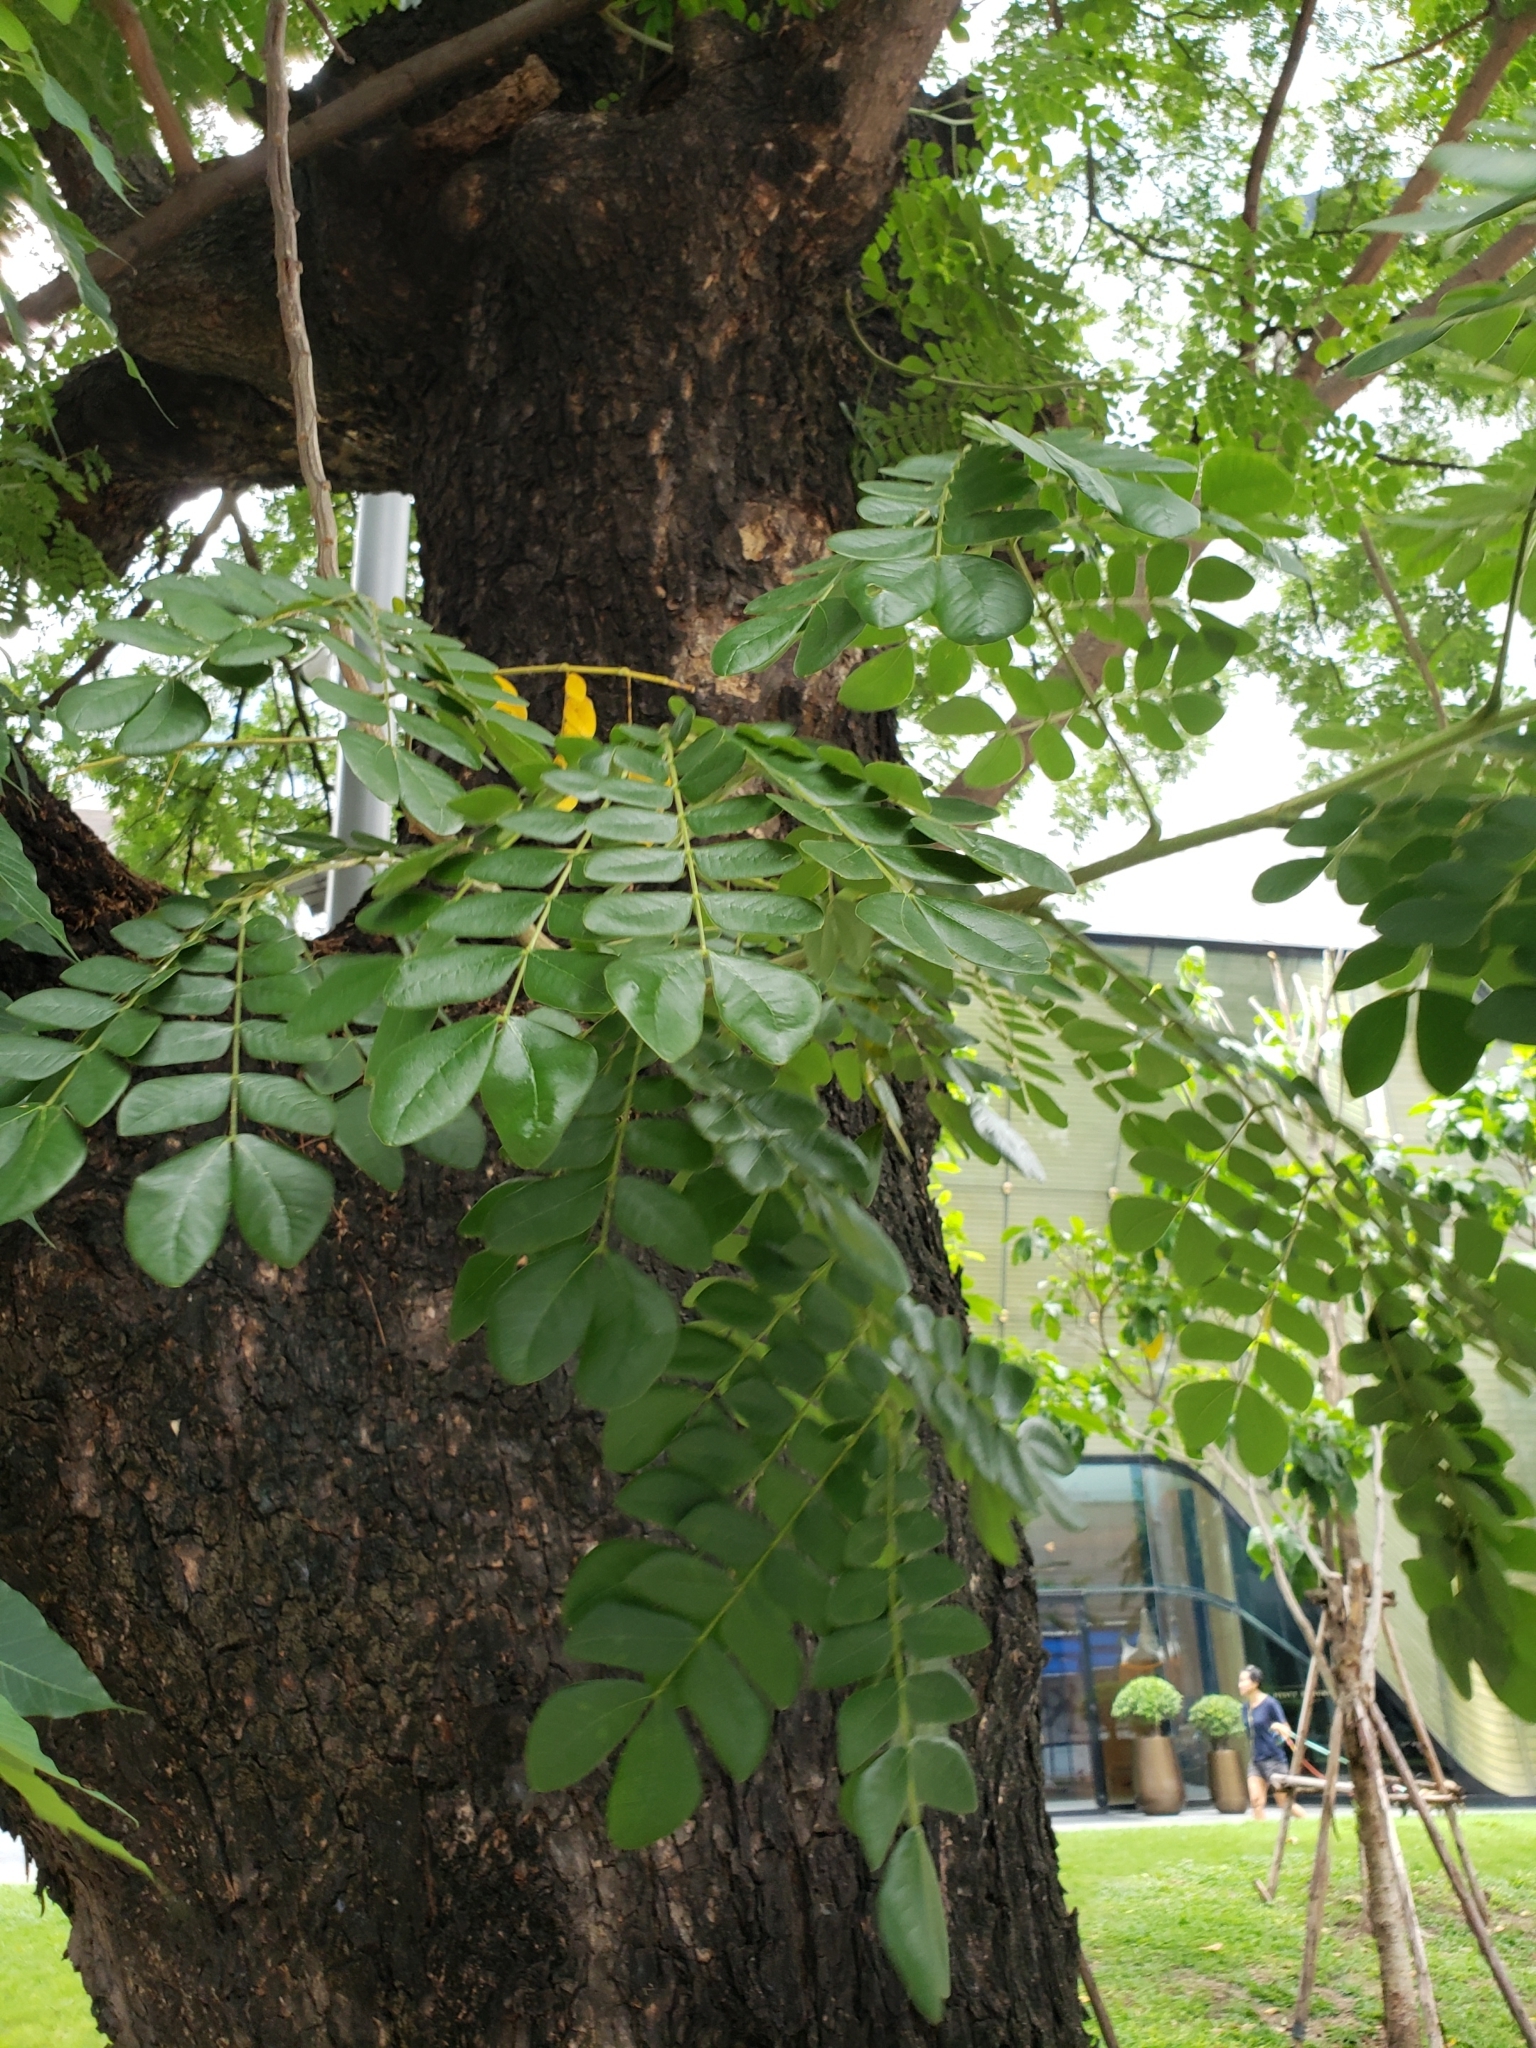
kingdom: Plantae
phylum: Tracheophyta
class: Magnoliopsida
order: Fabales
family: Fabaceae
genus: Samanea
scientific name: Samanea saman
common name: Raintree
